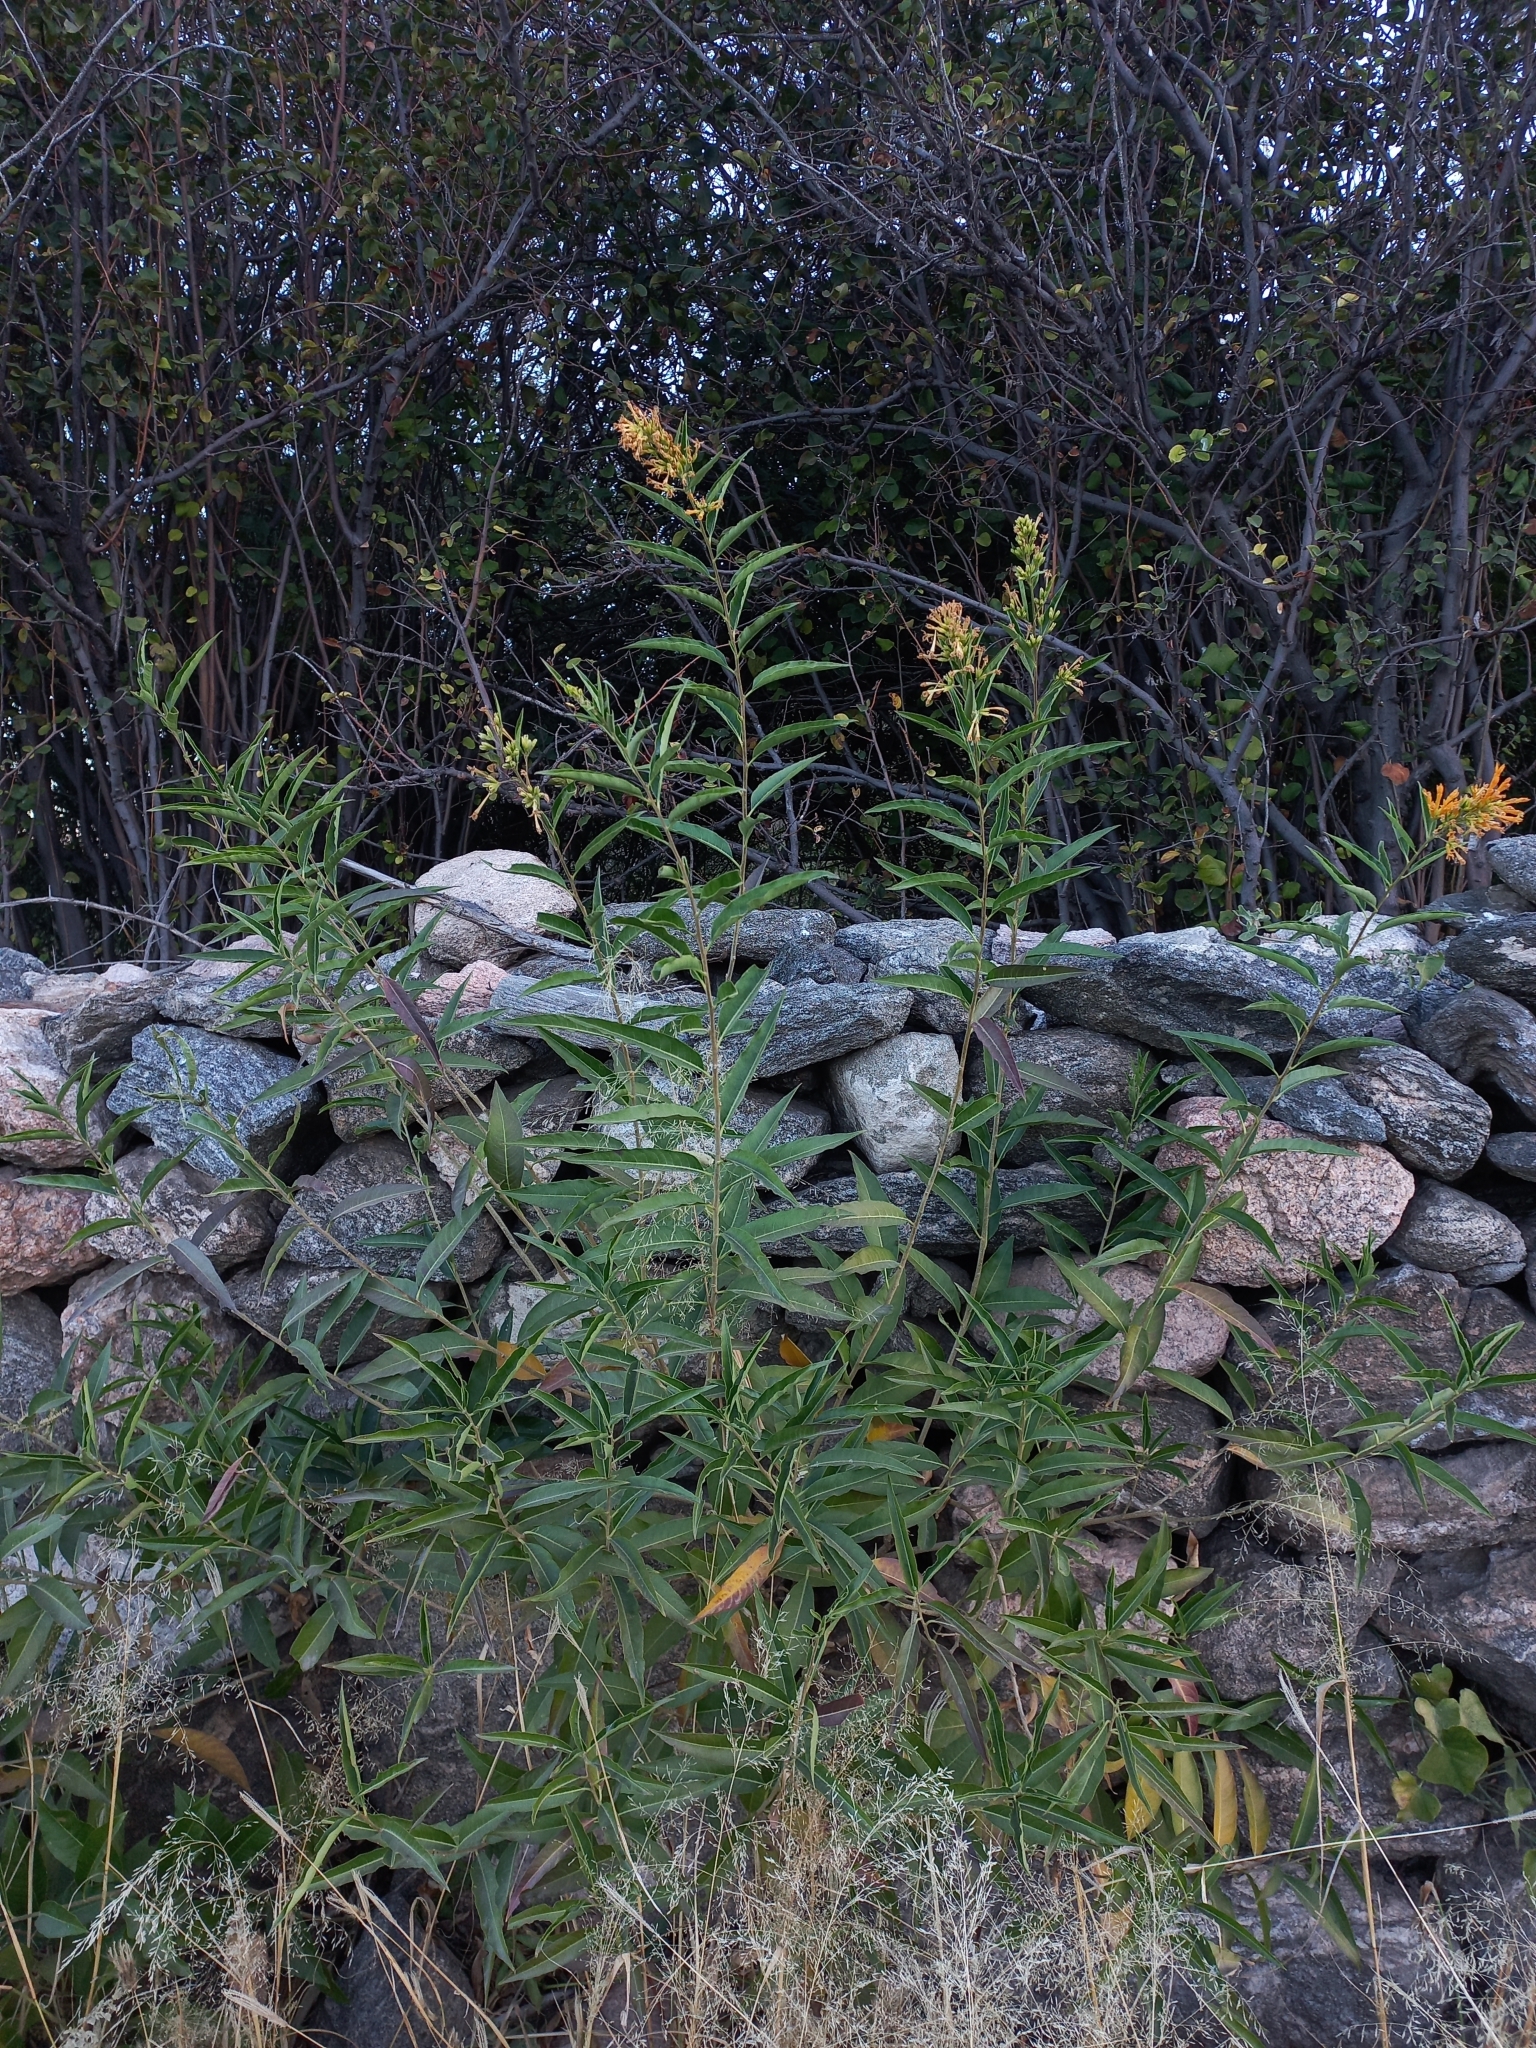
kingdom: Plantae
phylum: Tracheophyta
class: Magnoliopsida
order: Solanales
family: Solanaceae
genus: Cestrum
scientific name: Cestrum parqui
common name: Chilean cestrum
